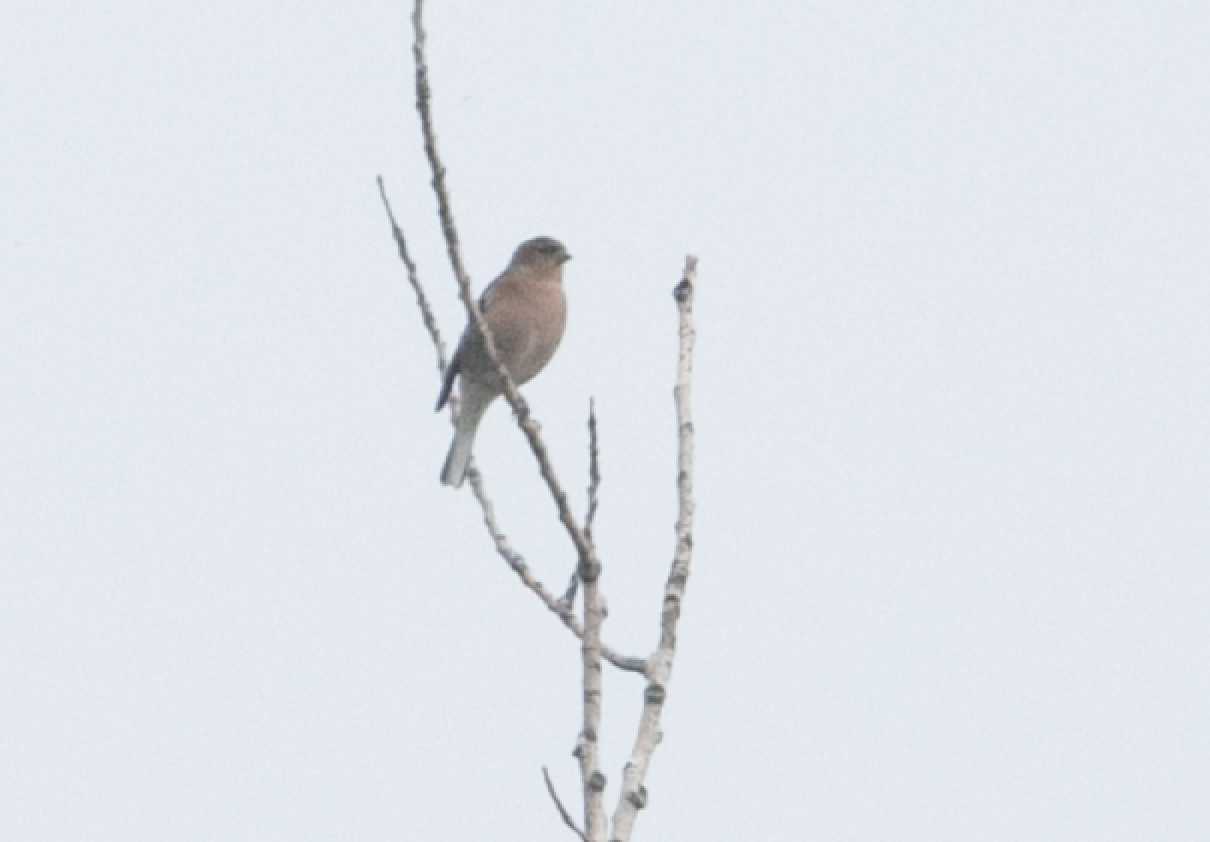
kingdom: Animalia
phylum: Chordata
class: Aves
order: Passeriformes
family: Fringillidae
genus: Fringilla
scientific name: Fringilla coelebs
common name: Common chaffinch
